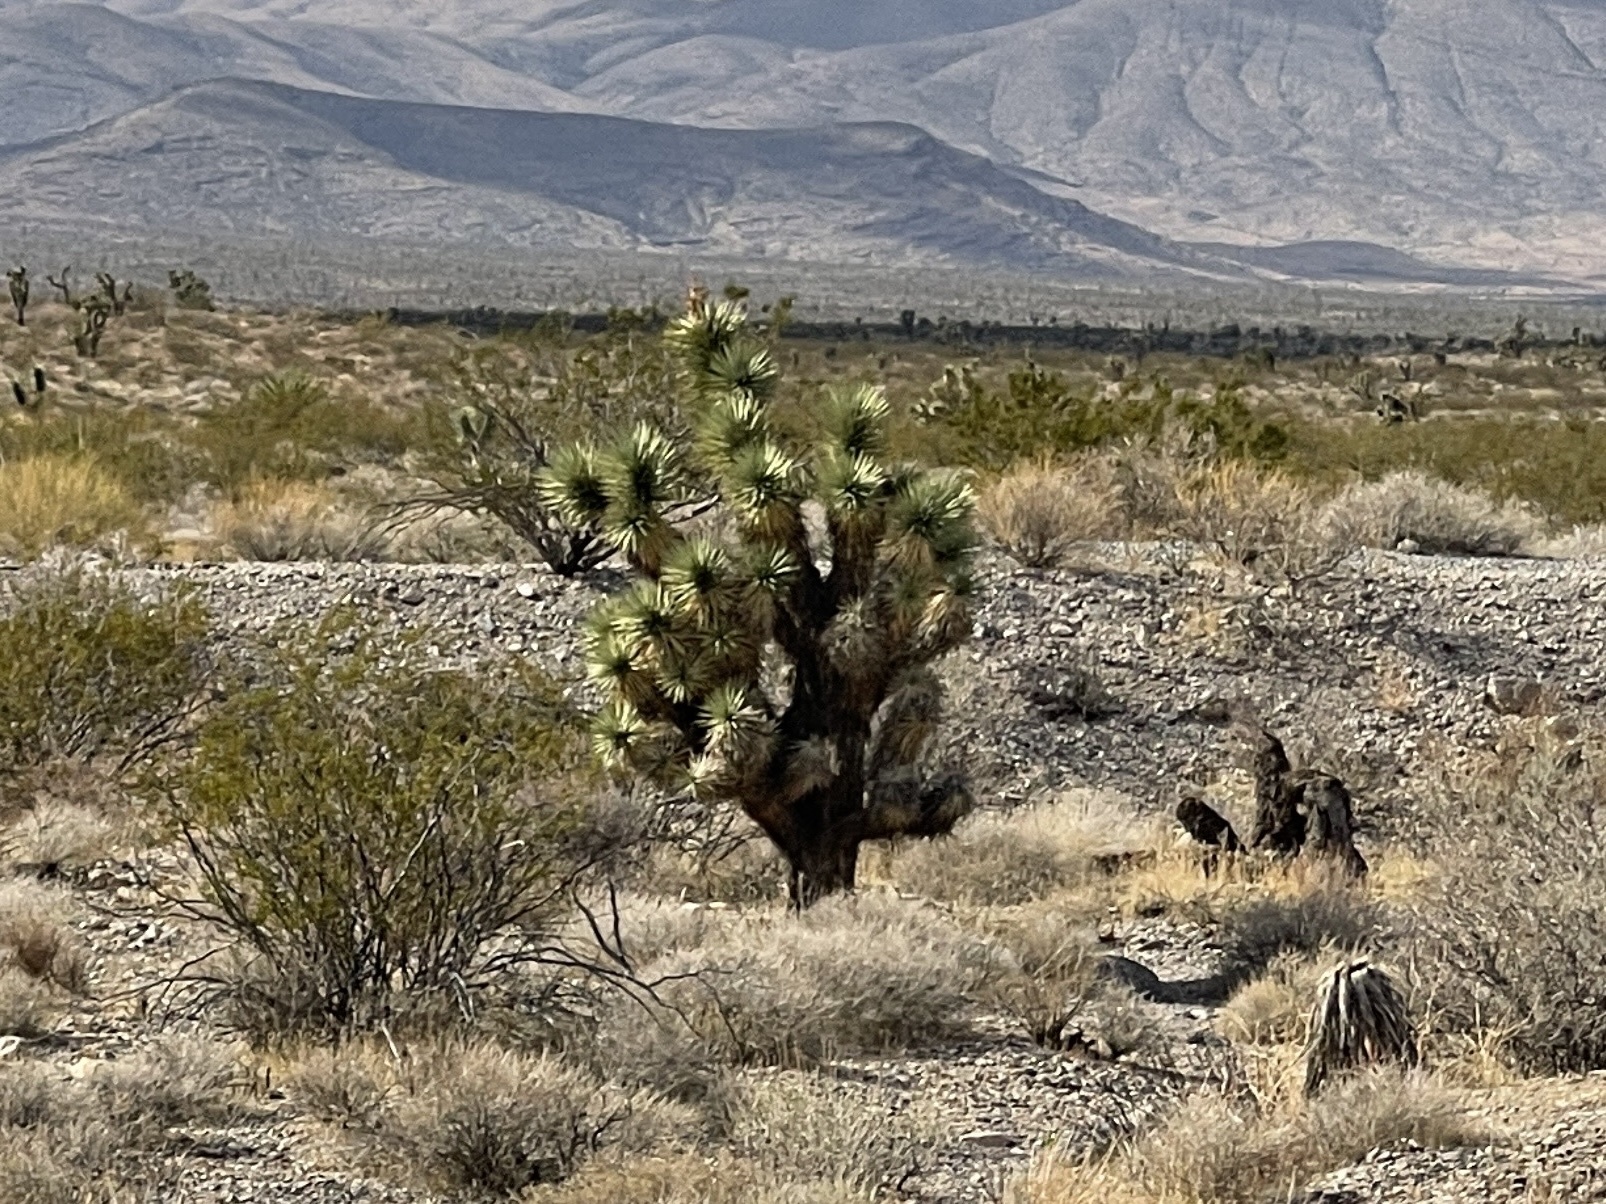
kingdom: Plantae
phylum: Tracheophyta
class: Liliopsida
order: Asparagales
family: Asparagaceae
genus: Yucca
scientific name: Yucca brevifolia
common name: Joshua tree
